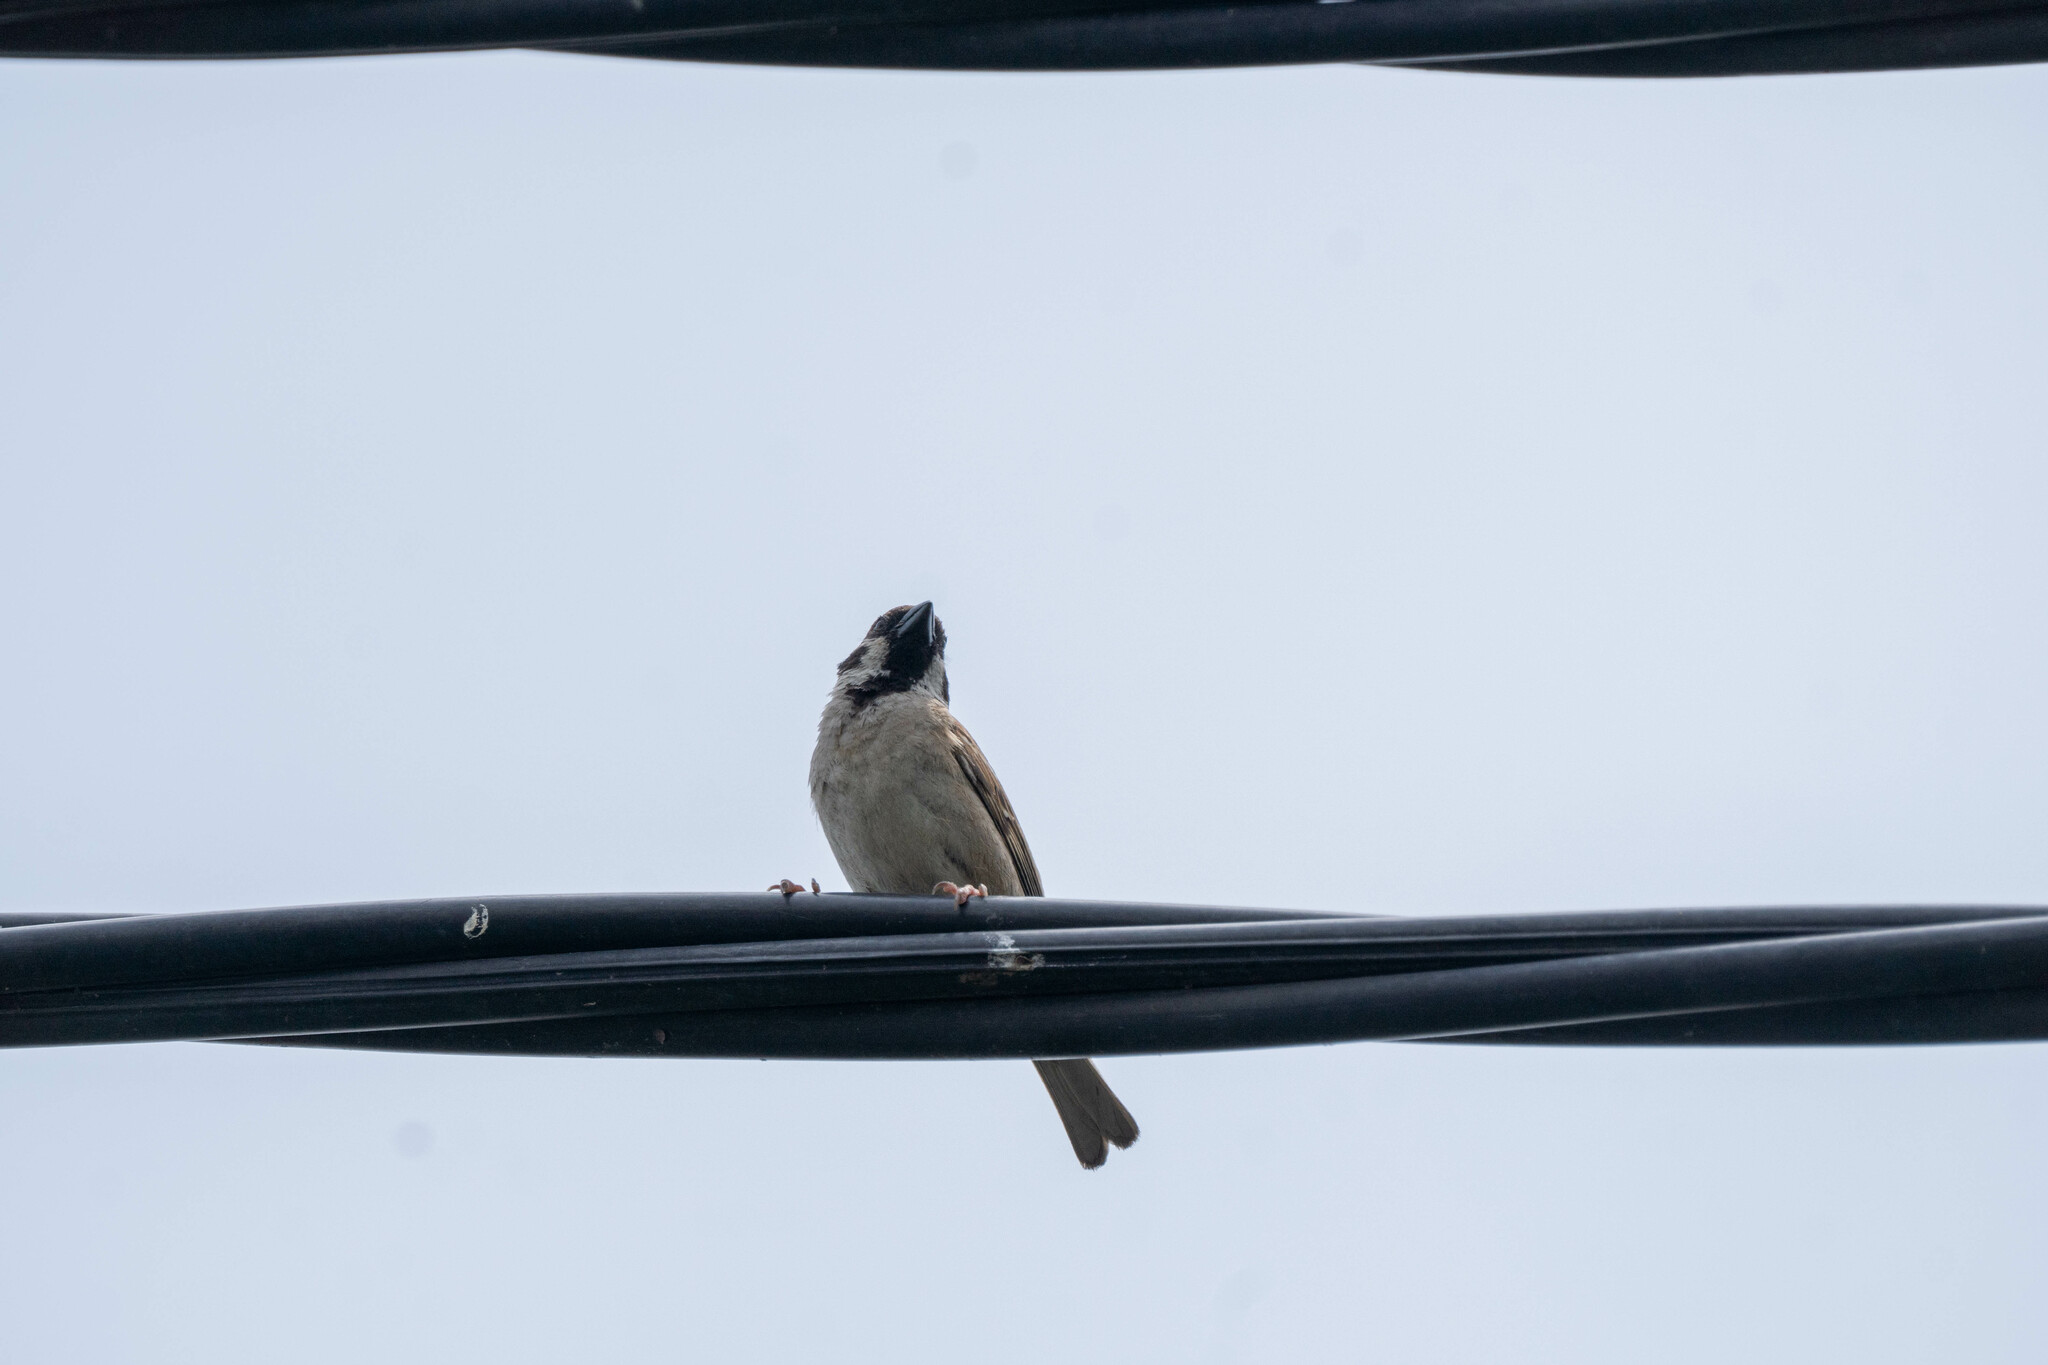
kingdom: Animalia
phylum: Chordata
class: Aves
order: Passeriformes
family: Passeridae
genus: Passer
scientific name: Passer montanus
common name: Eurasian tree sparrow
